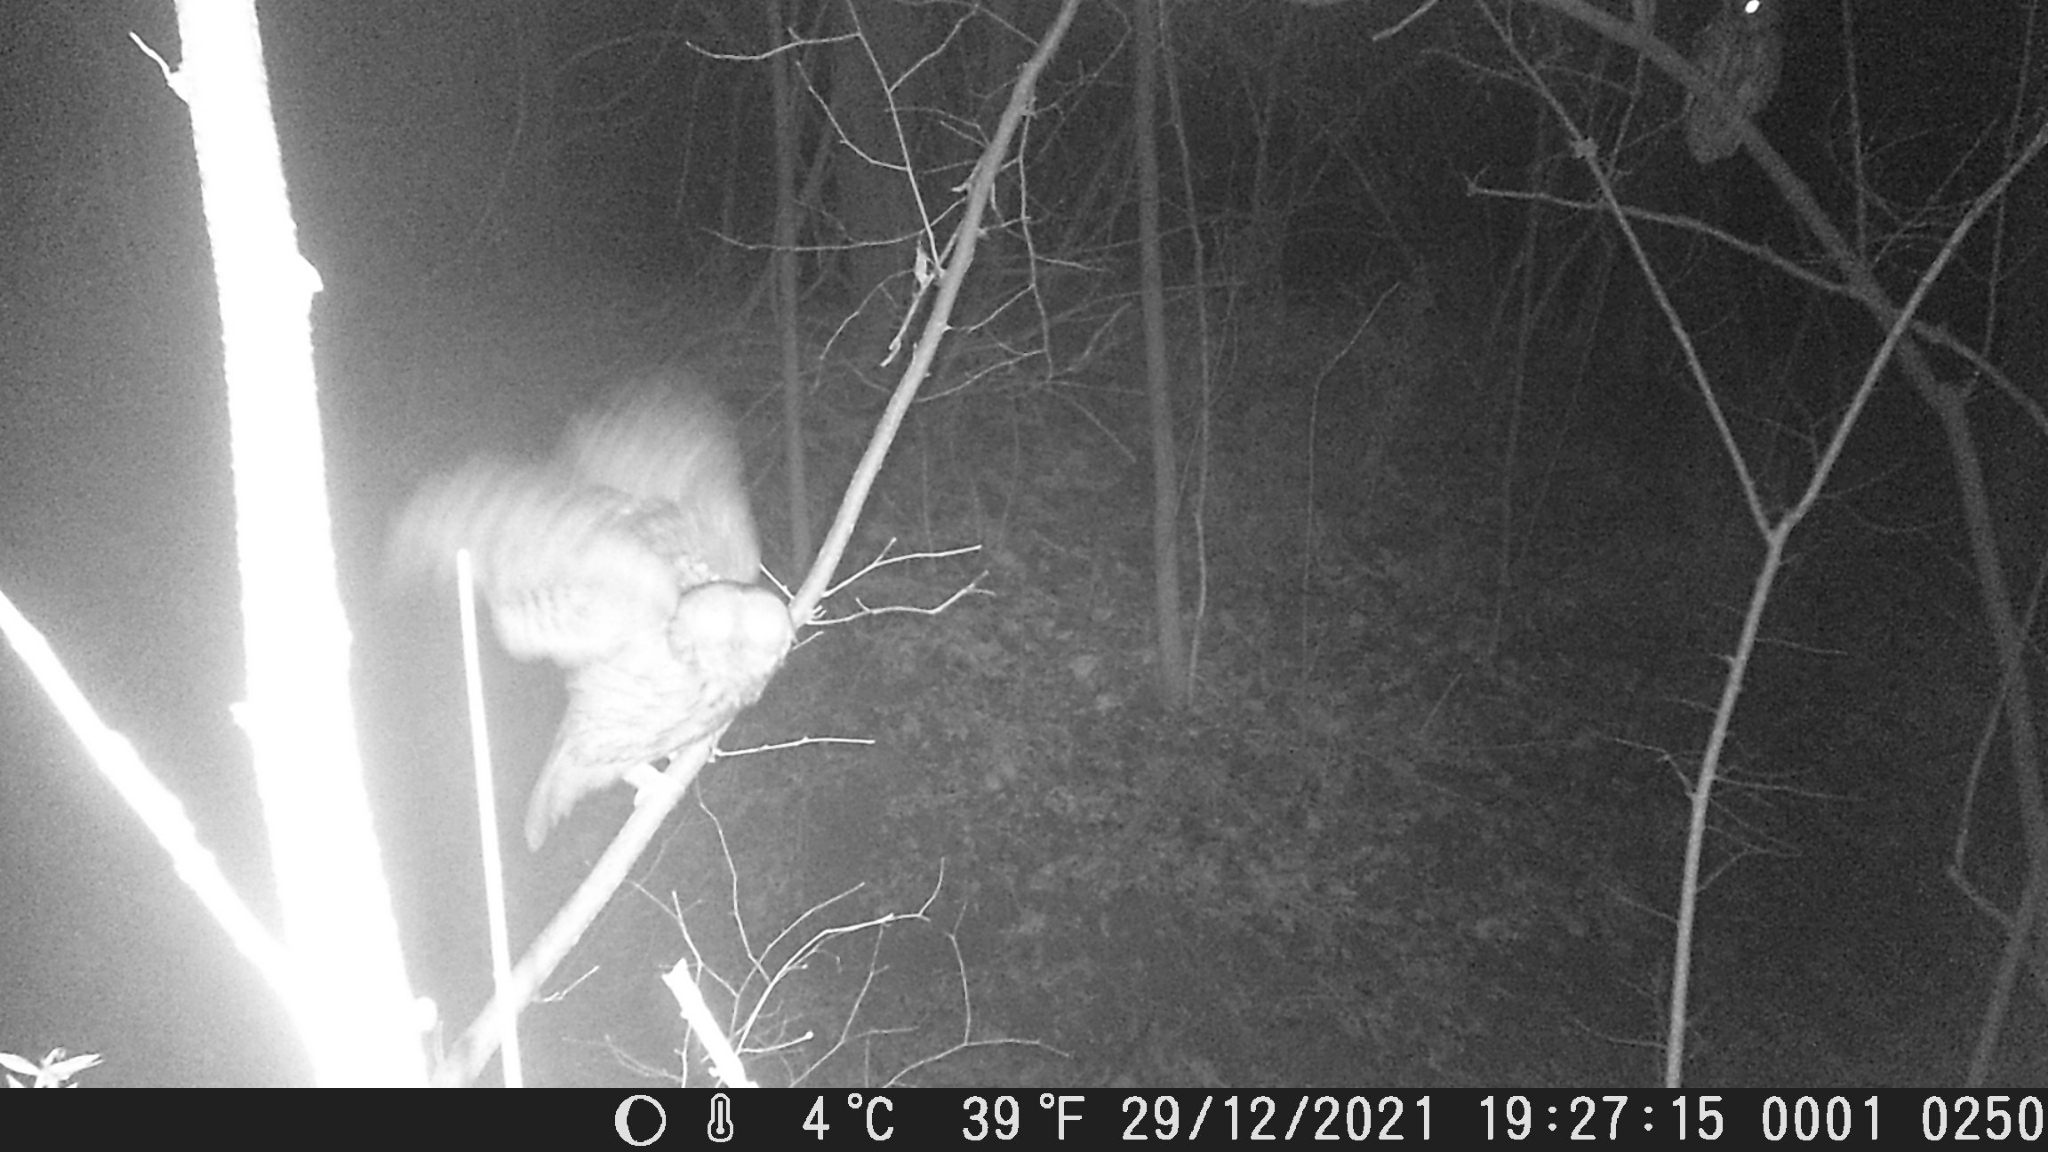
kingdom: Animalia
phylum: Chordata
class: Aves
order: Strigiformes
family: Strigidae
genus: Strix
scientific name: Strix aluco
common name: Tawny owl
